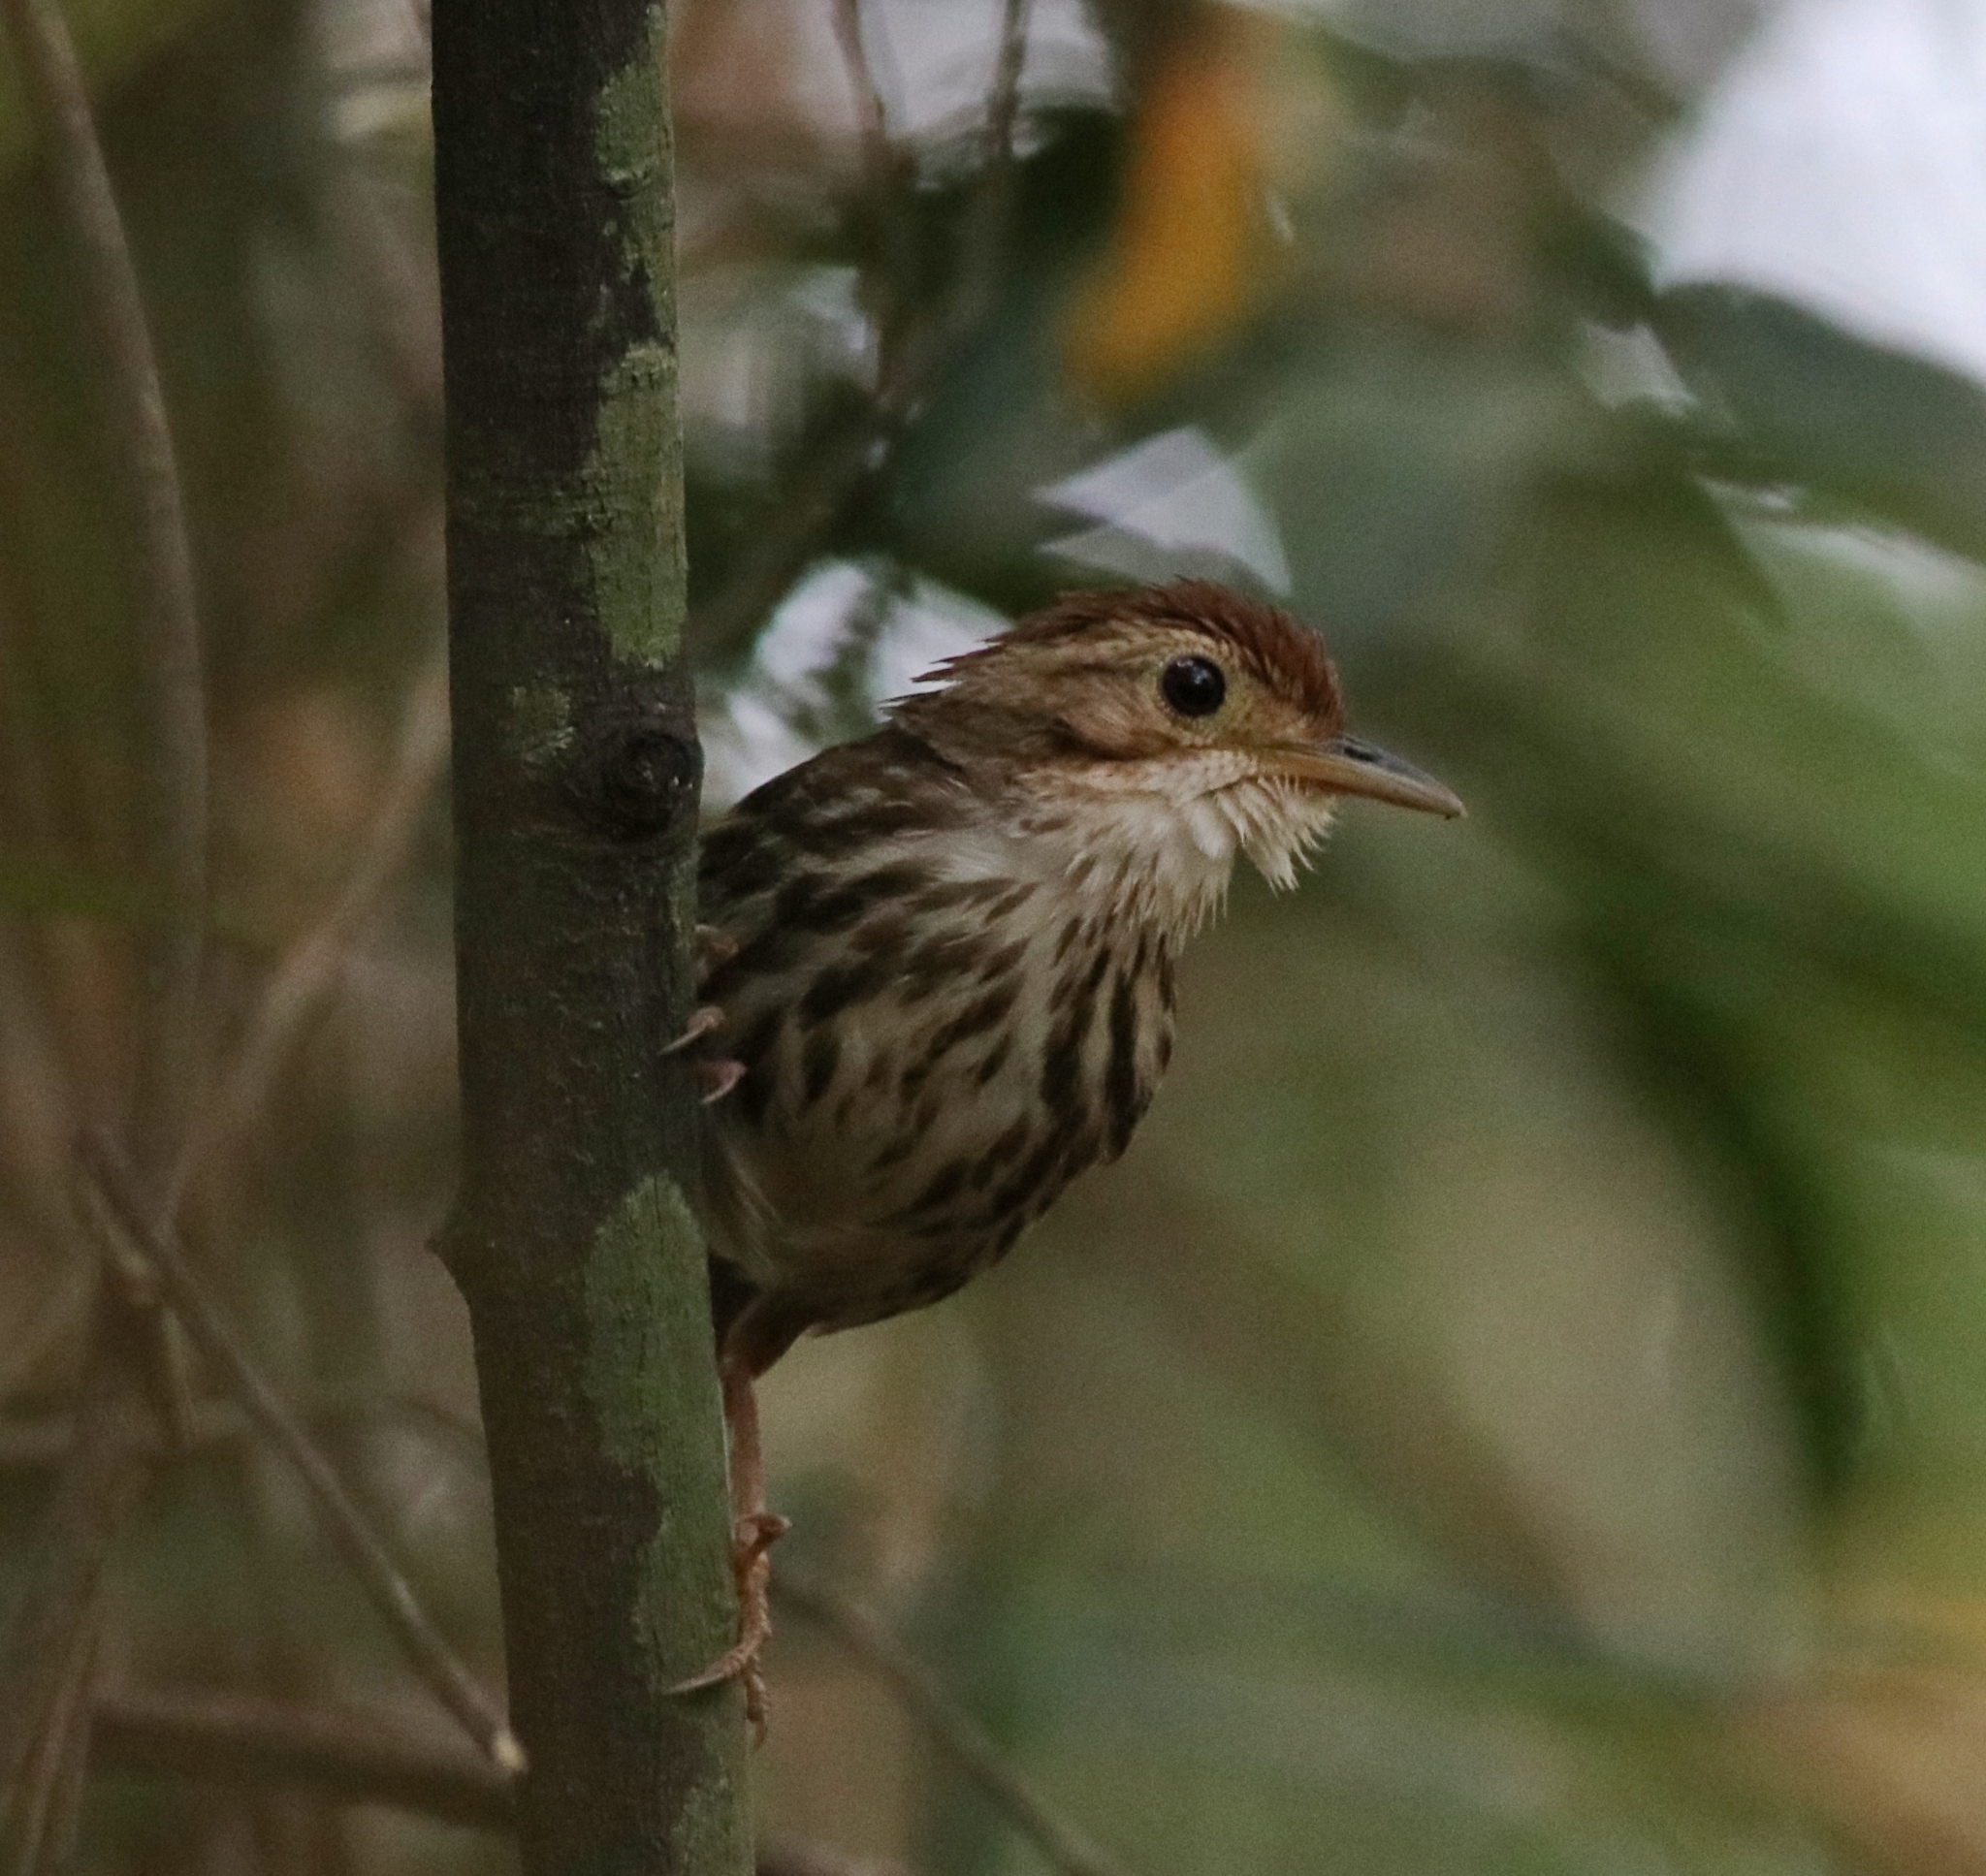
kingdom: Animalia
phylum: Chordata
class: Aves
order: Passeriformes
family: Pellorneidae
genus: Pellorneum
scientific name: Pellorneum ruficeps
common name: Puff-throated babbler
